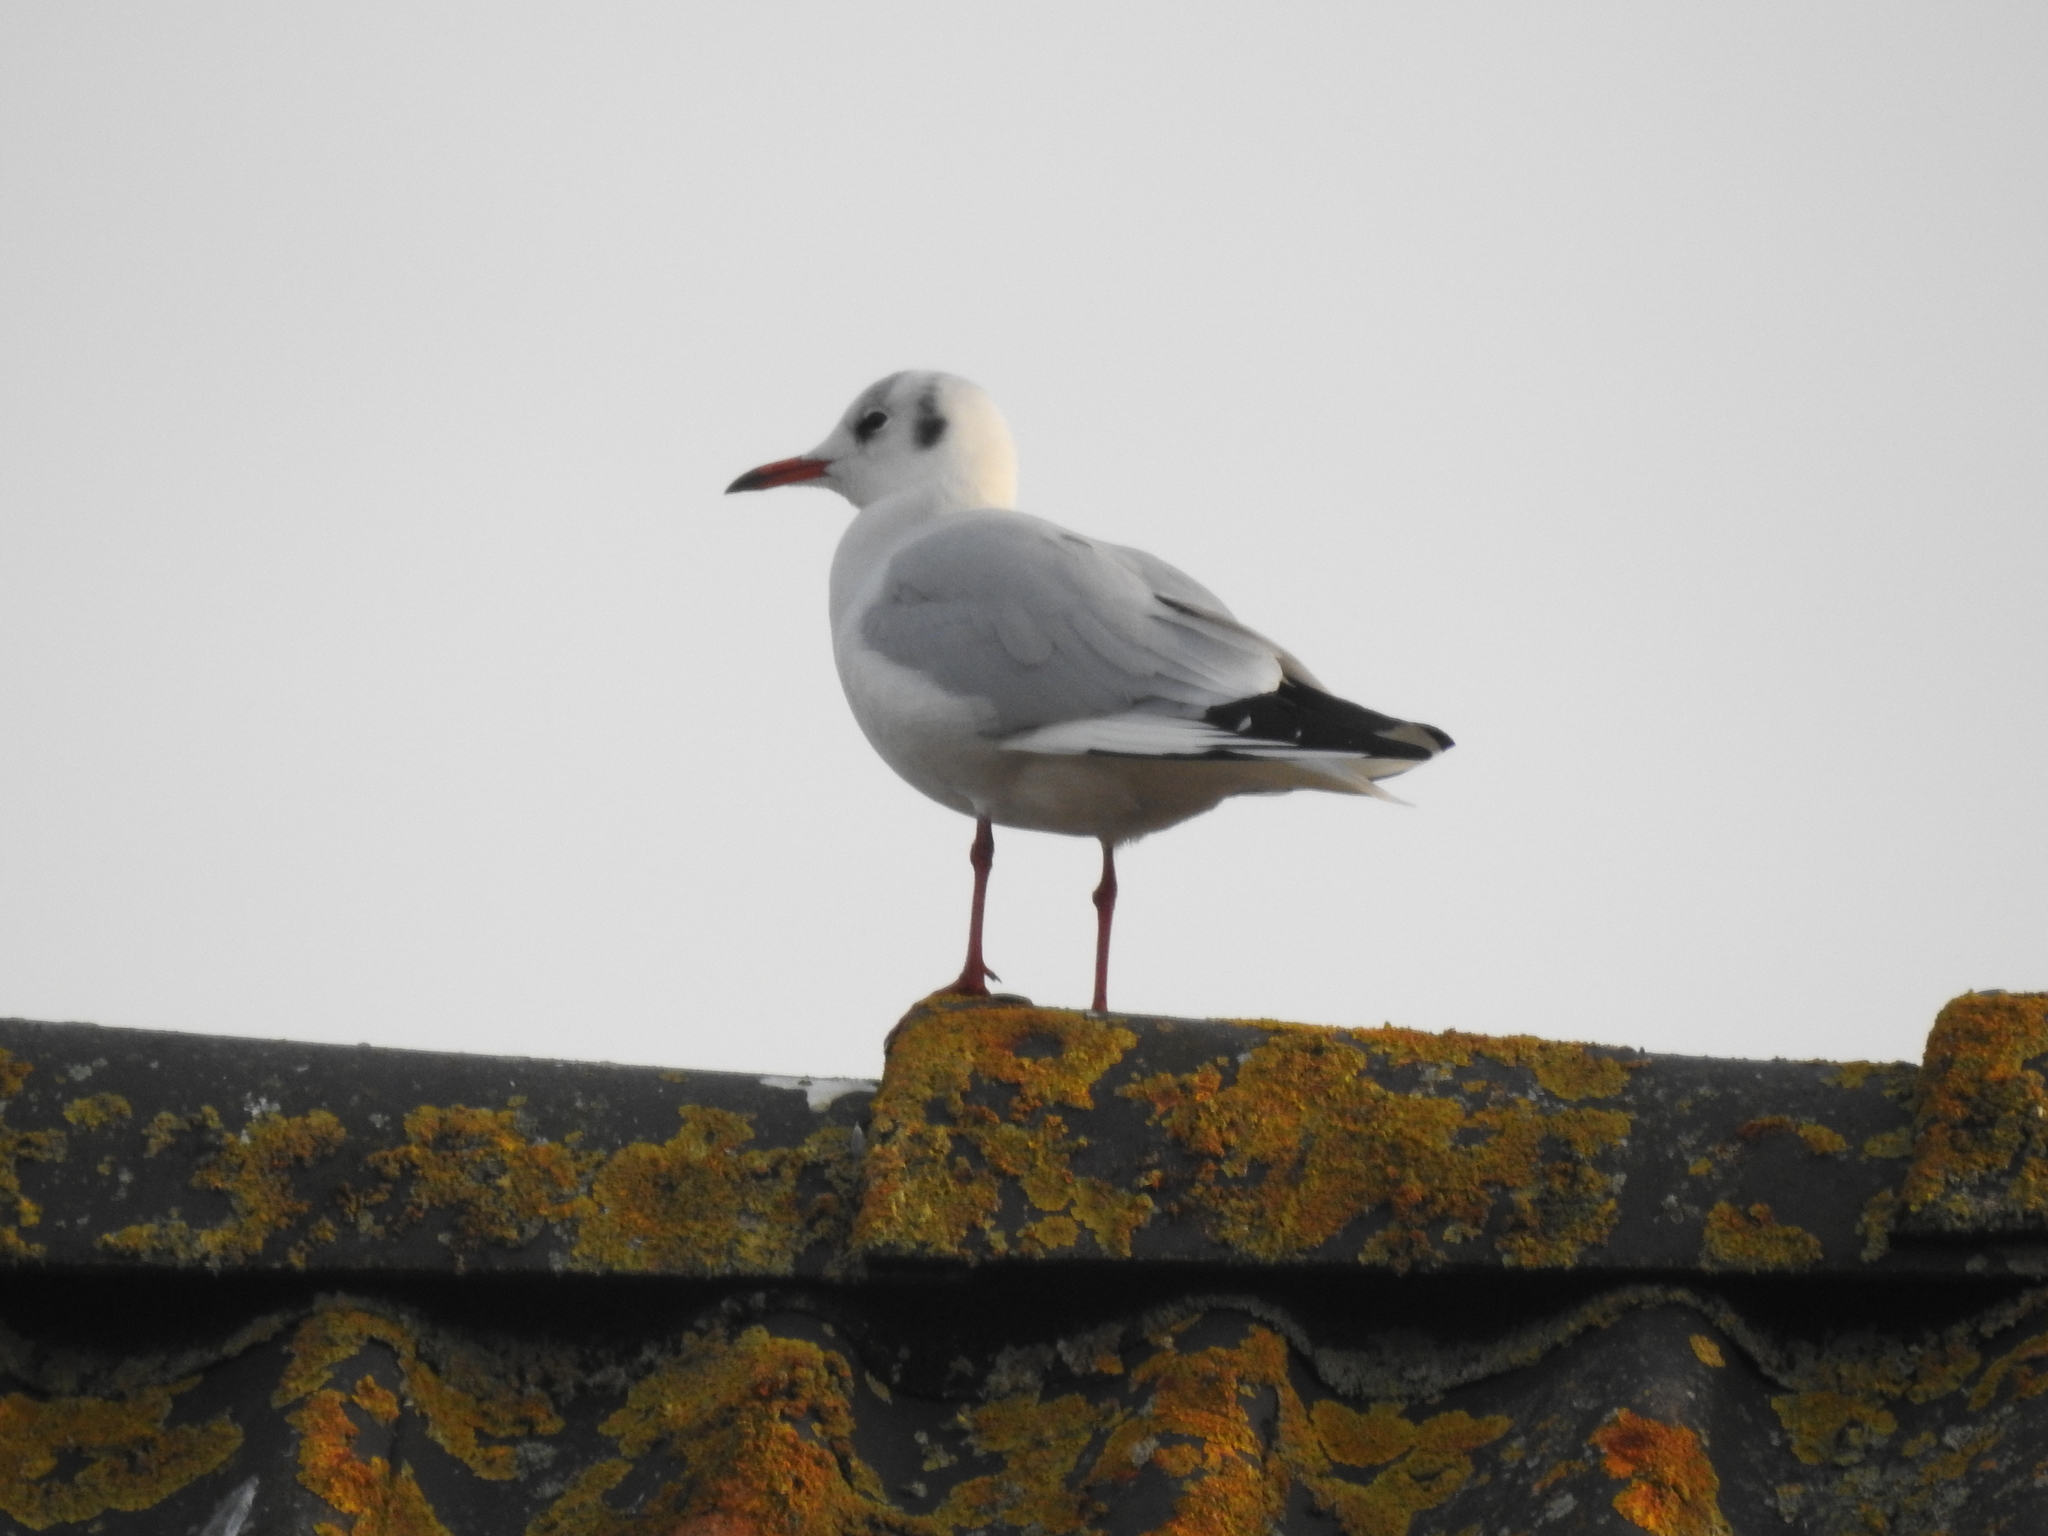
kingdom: Animalia
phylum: Chordata
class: Aves
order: Charadriiformes
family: Laridae
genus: Chroicocephalus
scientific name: Chroicocephalus ridibundus
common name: Black-headed gull
